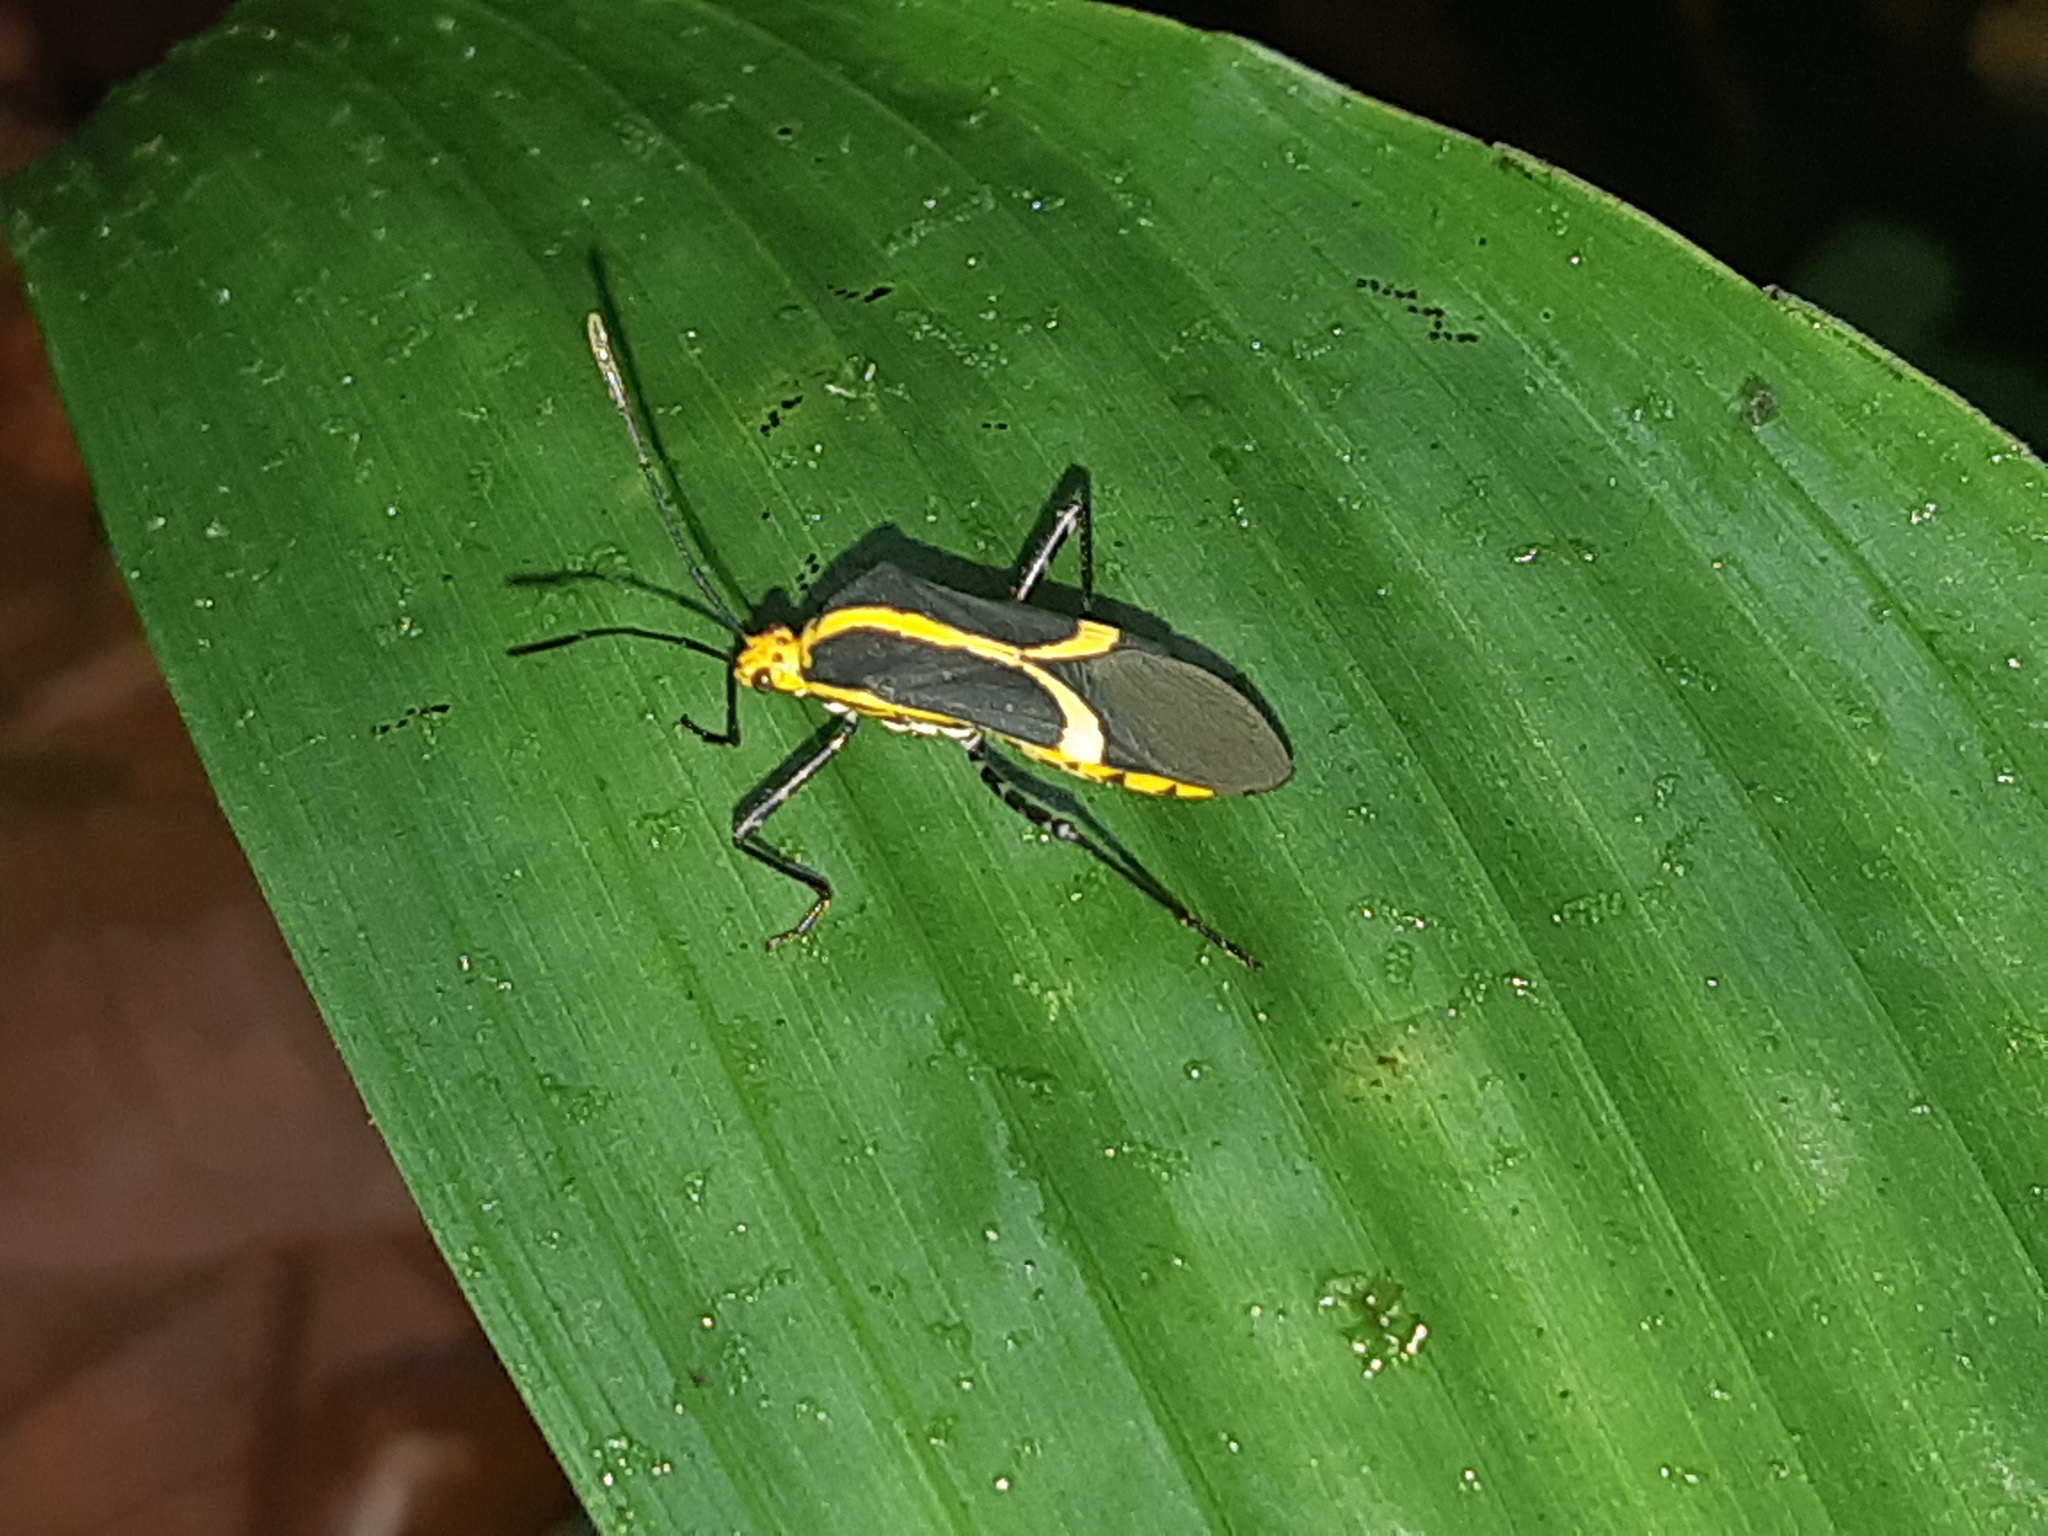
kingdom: Animalia
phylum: Arthropoda
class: Insecta
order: Hemiptera
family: Coreidae
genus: Hypselonotus
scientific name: Hypselonotus linea
